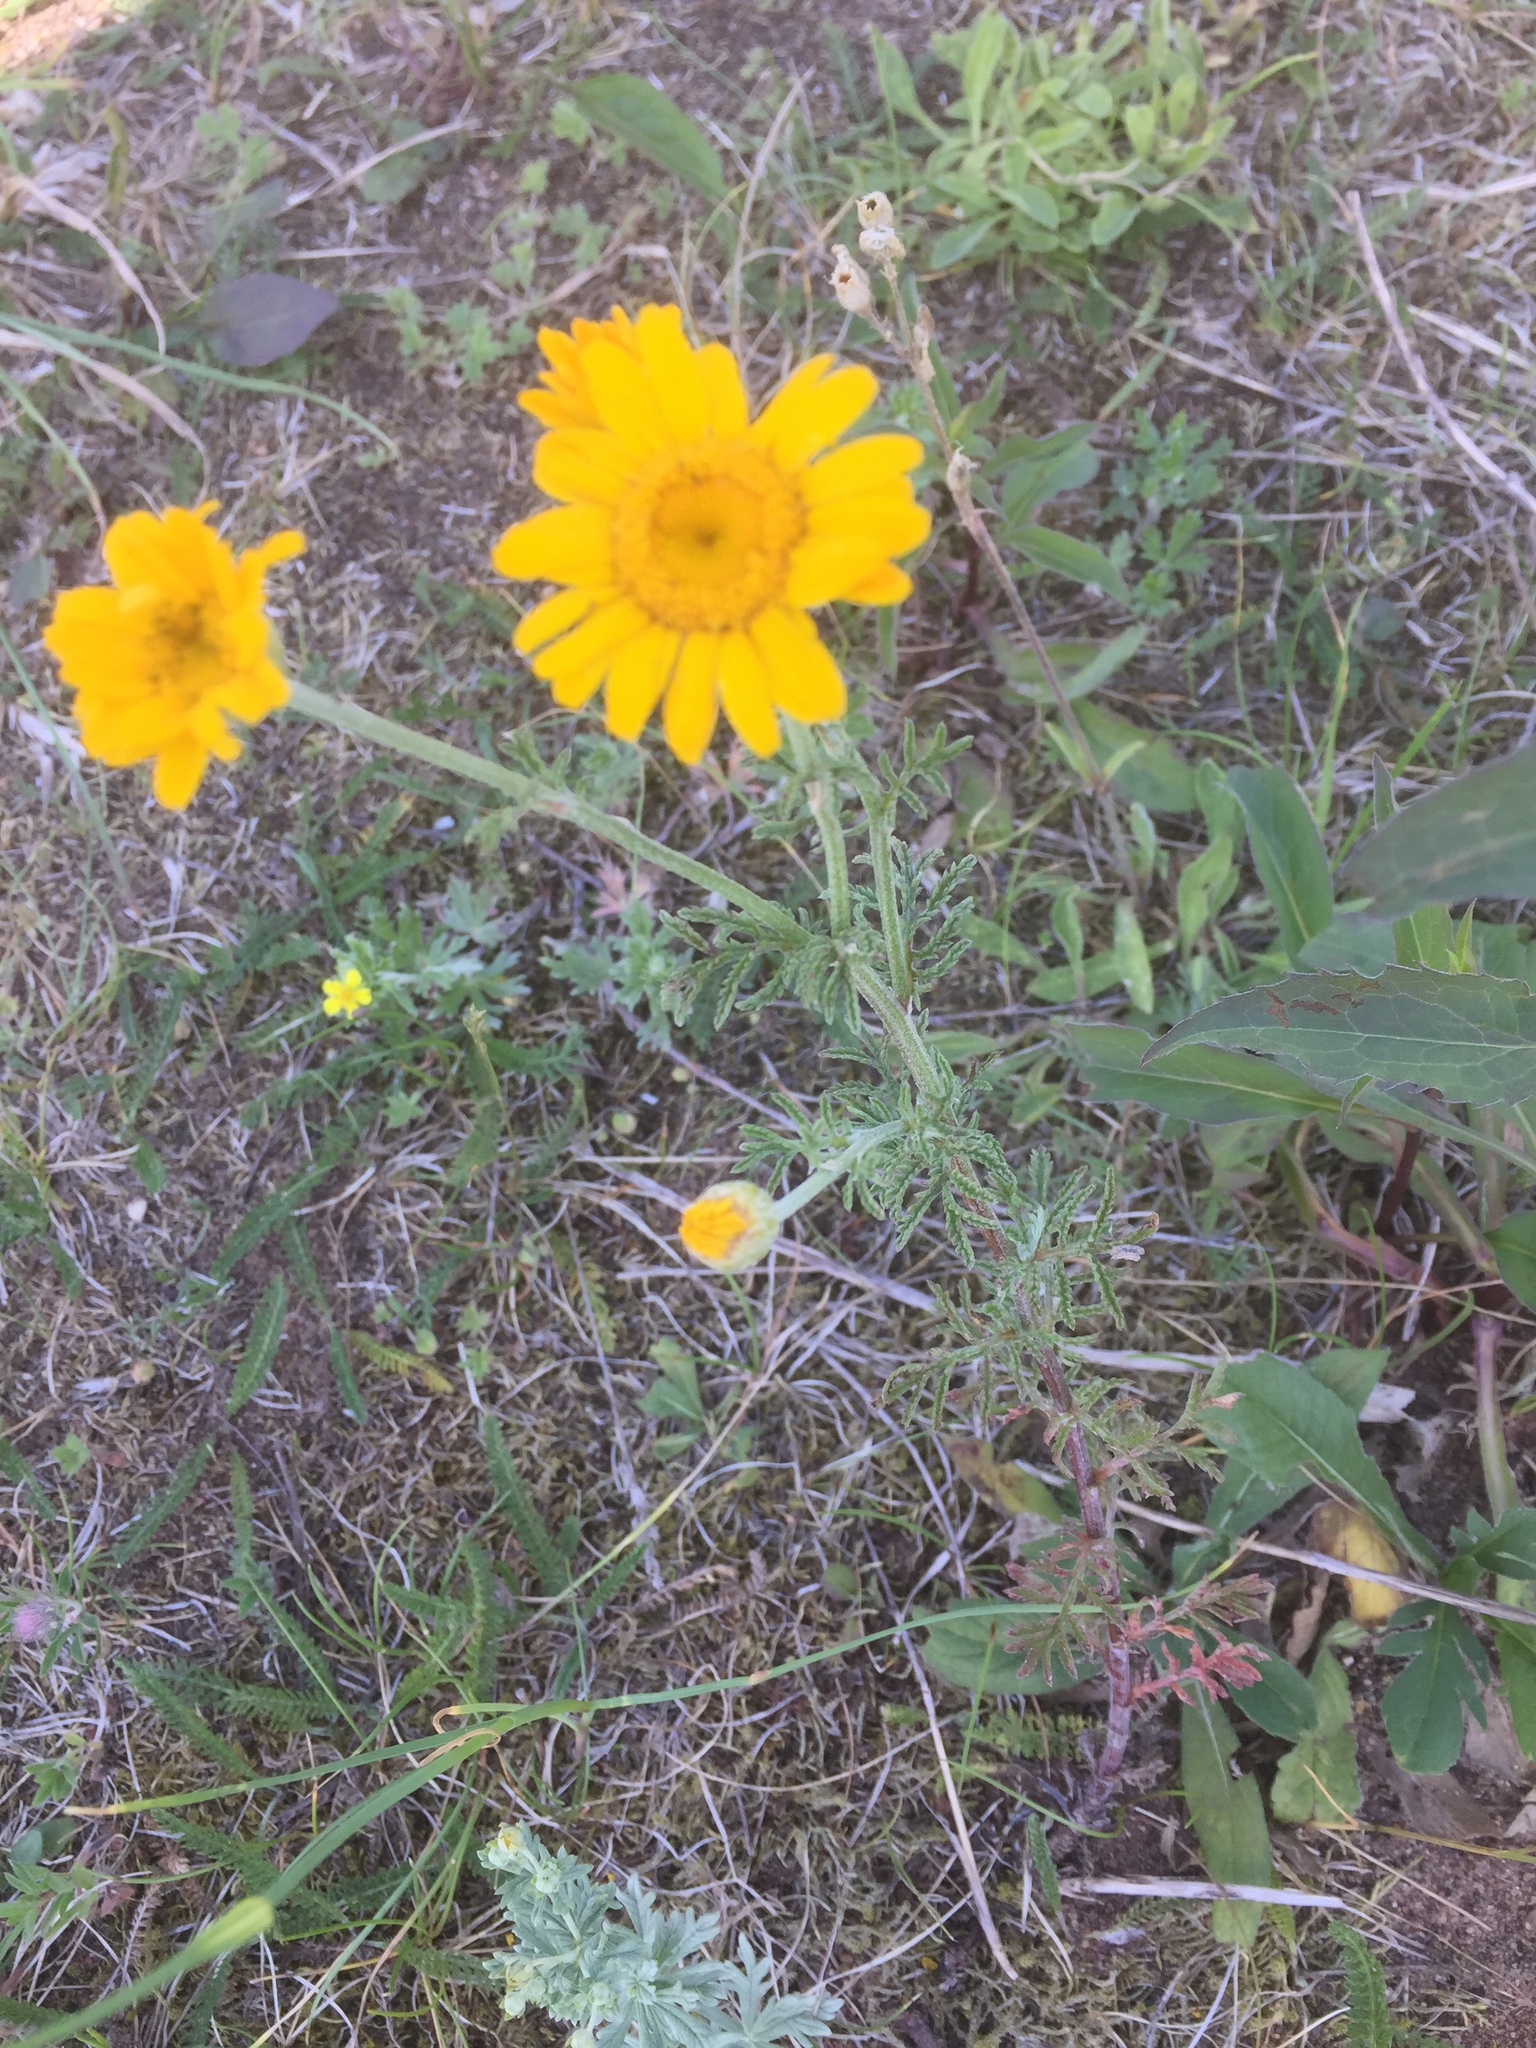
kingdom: Plantae
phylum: Tracheophyta
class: Magnoliopsida
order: Asterales
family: Asteraceae
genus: Cota
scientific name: Cota tinctoria
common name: Golden chamomile
